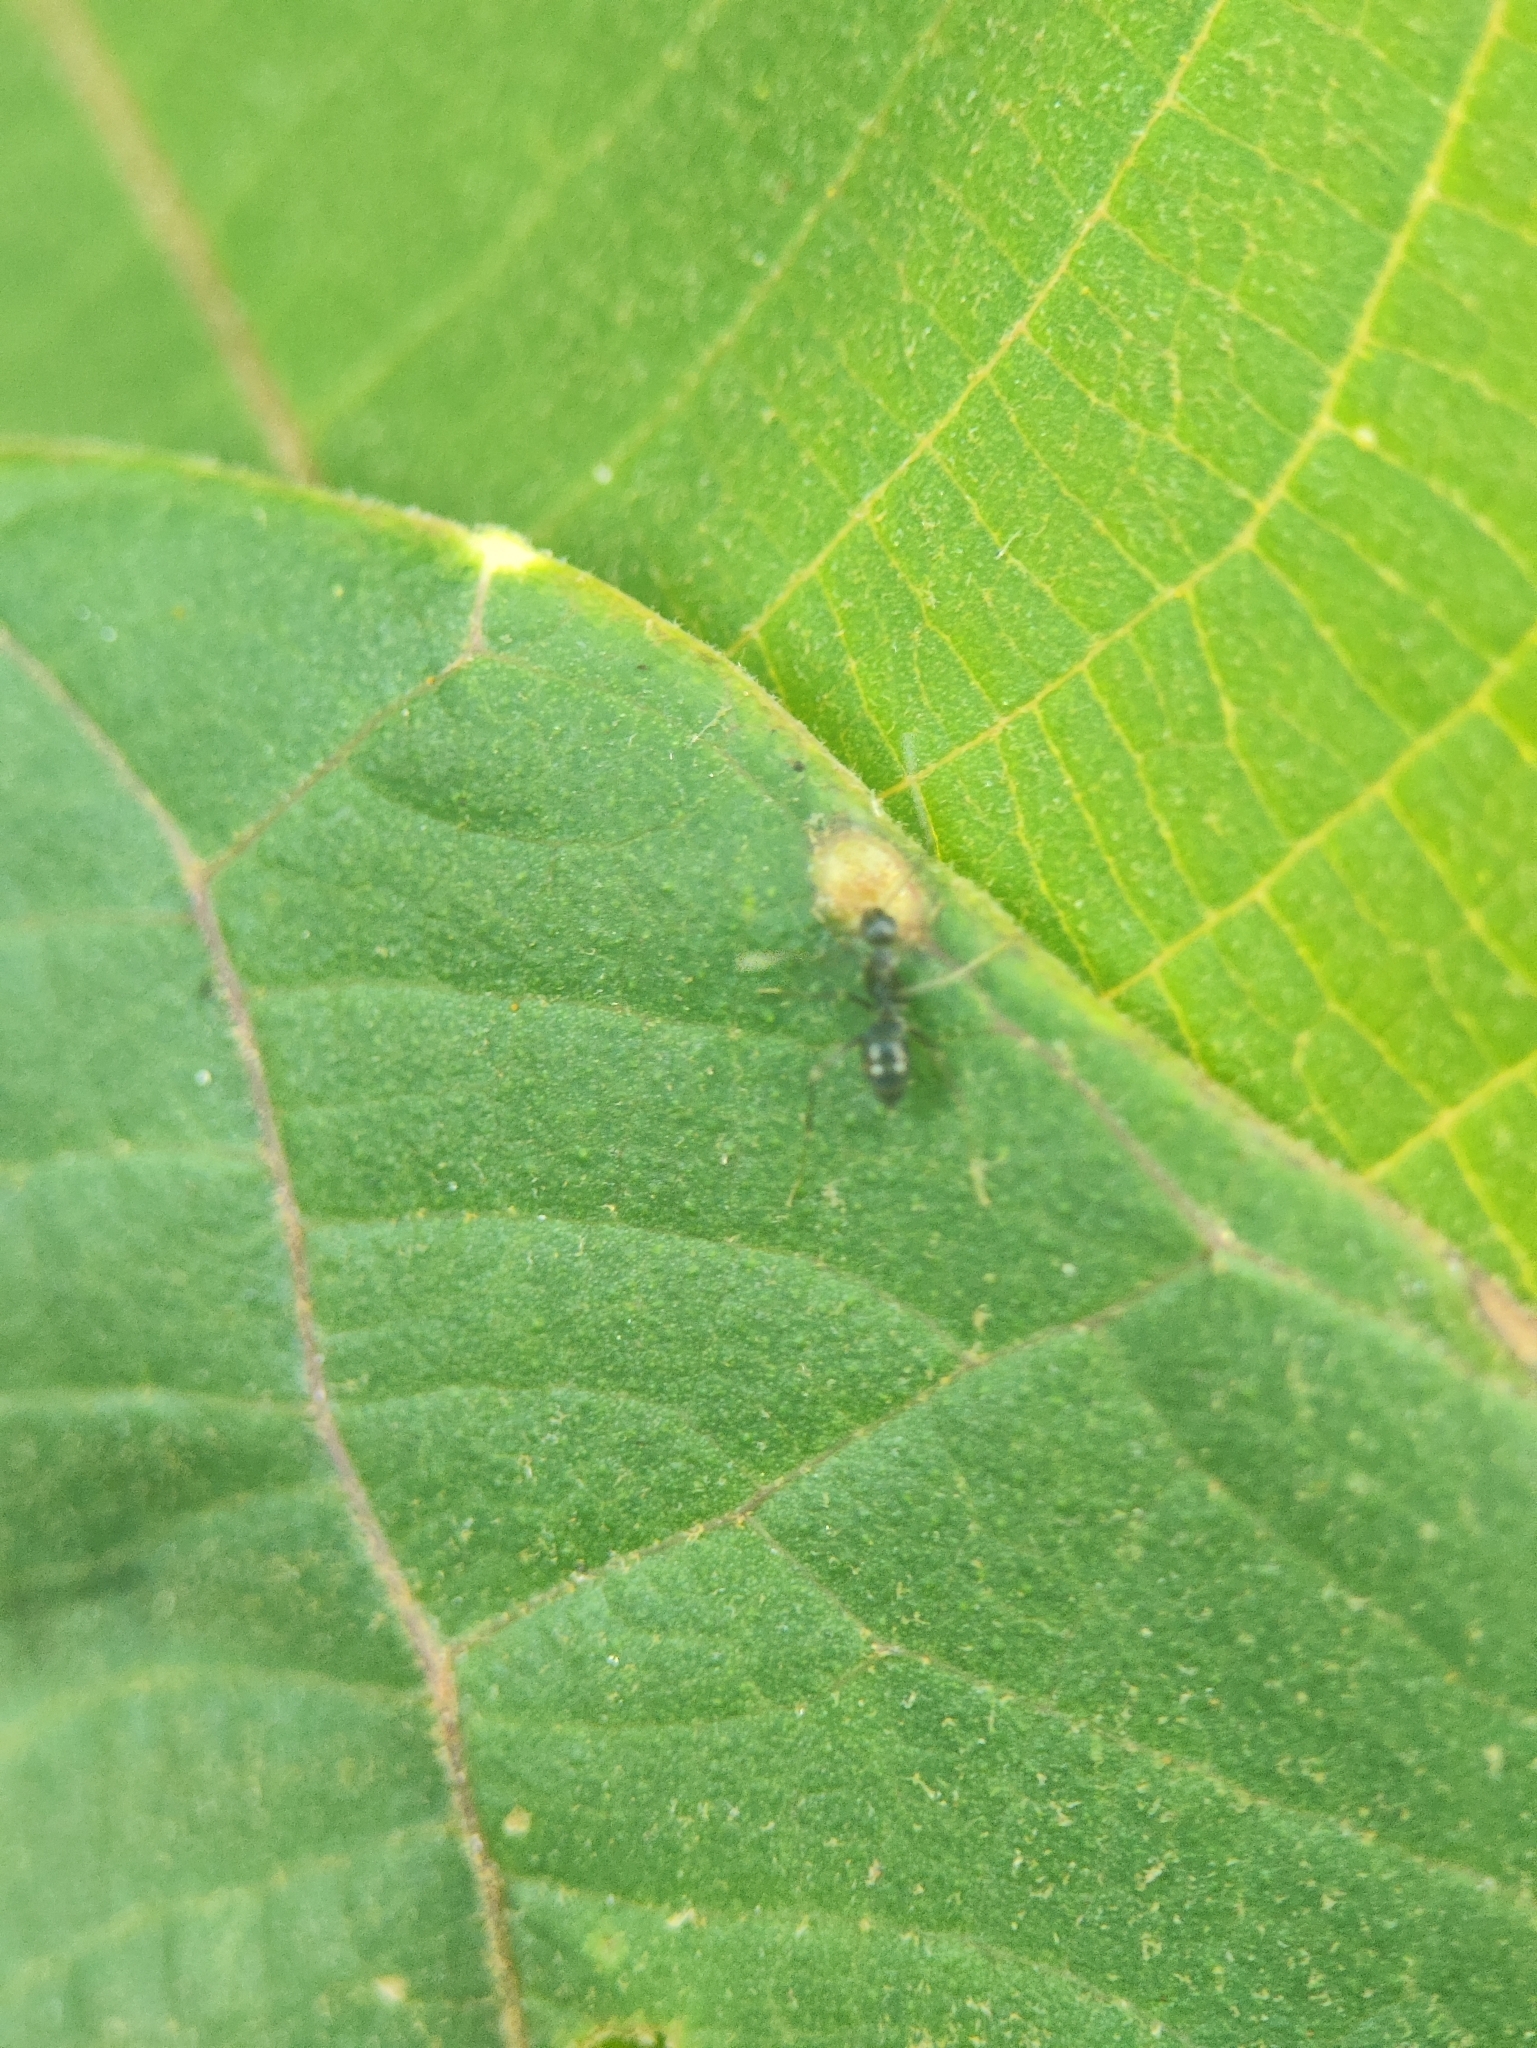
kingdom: Animalia
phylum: Arthropoda
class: Insecta
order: Hymenoptera
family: Formicidae
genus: Paratrechina
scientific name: Paratrechina longicornis
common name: Longhorned crazy ant
